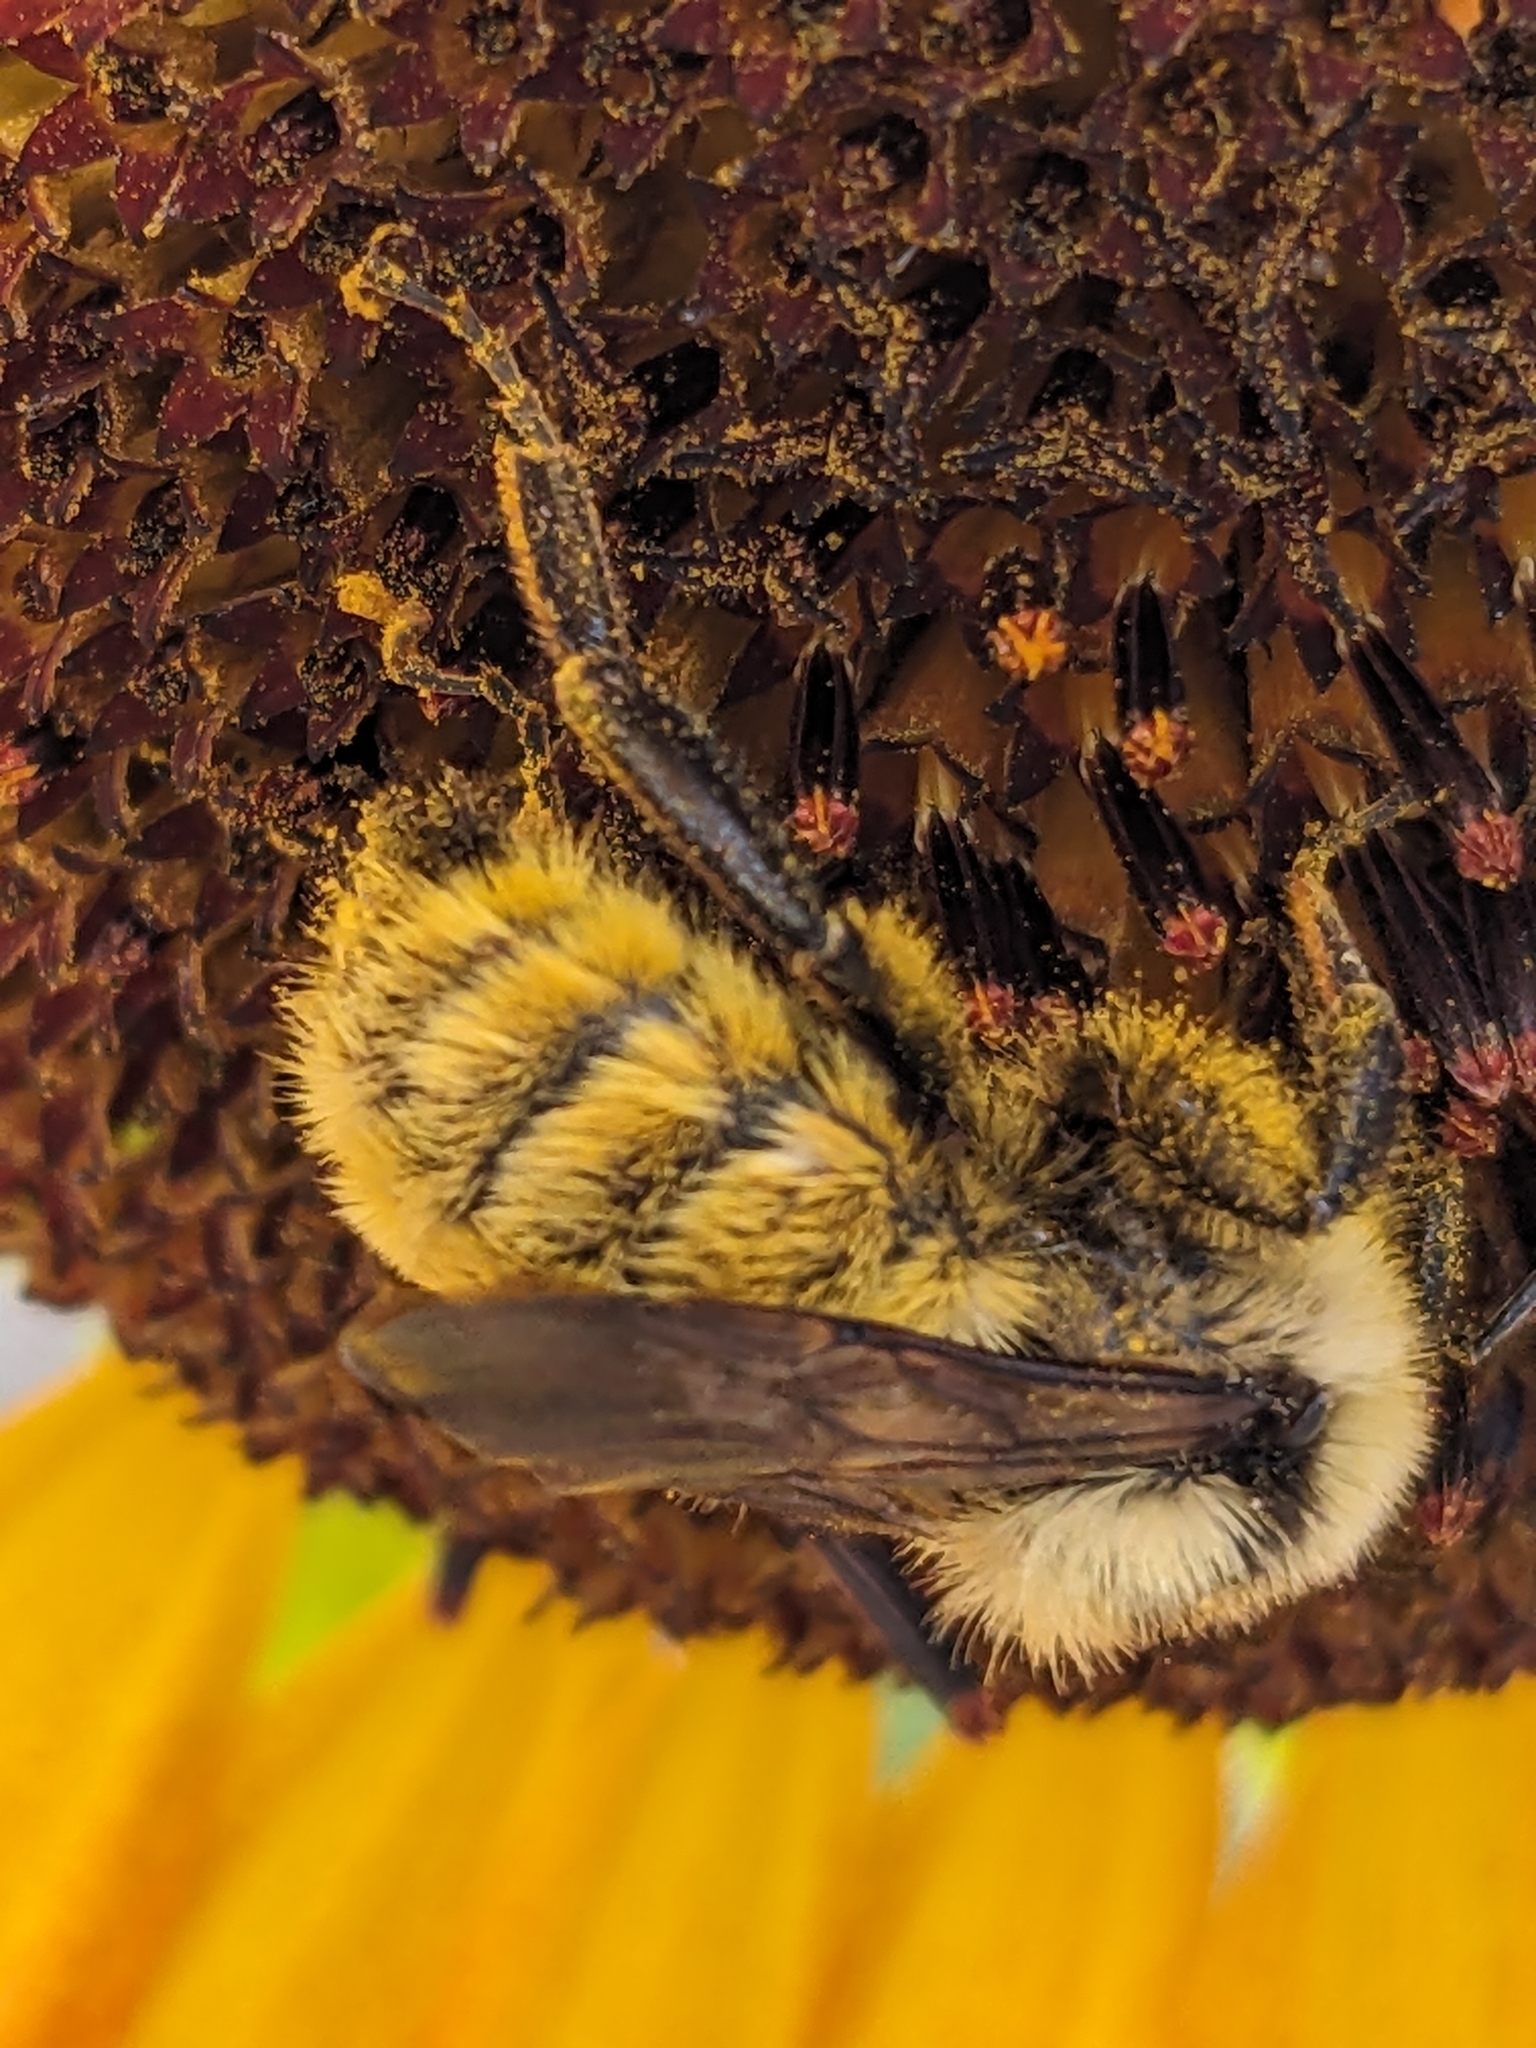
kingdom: Animalia
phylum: Arthropoda
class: Insecta
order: Hymenoptera
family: Apidae
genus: Bombus
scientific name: Bombus appositus
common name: White-shouldered bumble bee
